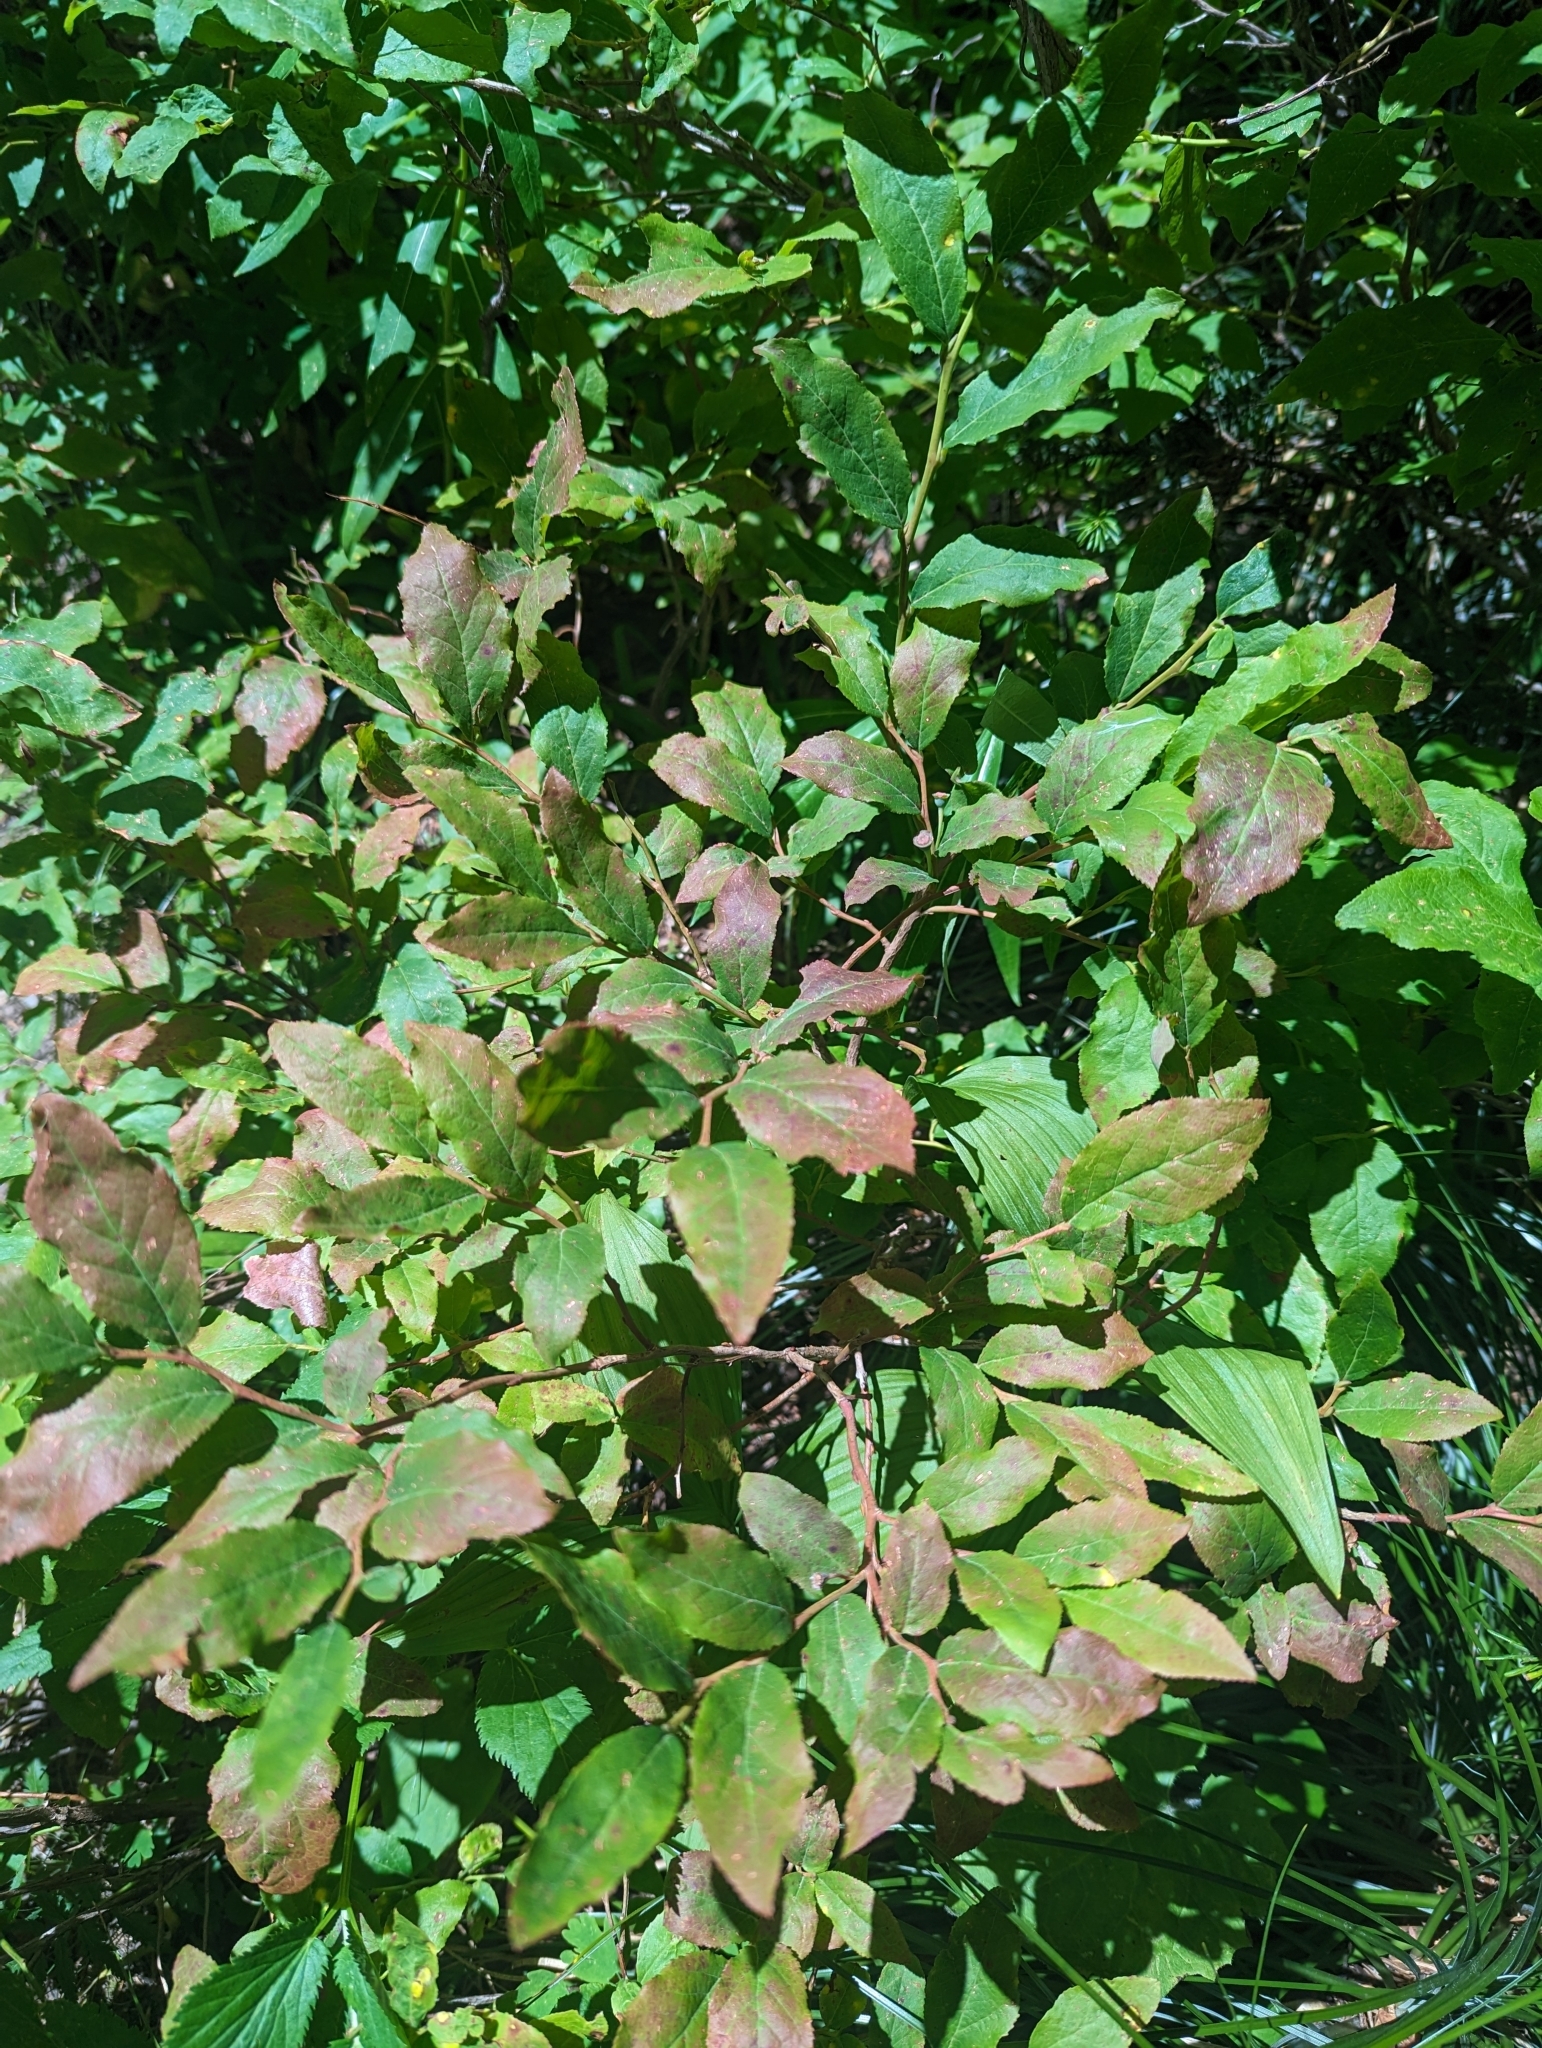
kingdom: Plantae
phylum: Tracheophyta
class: Magnoliopsida
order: Ericales
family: Ericaceae
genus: Vaccinium
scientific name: Vaccinium membranaceum
